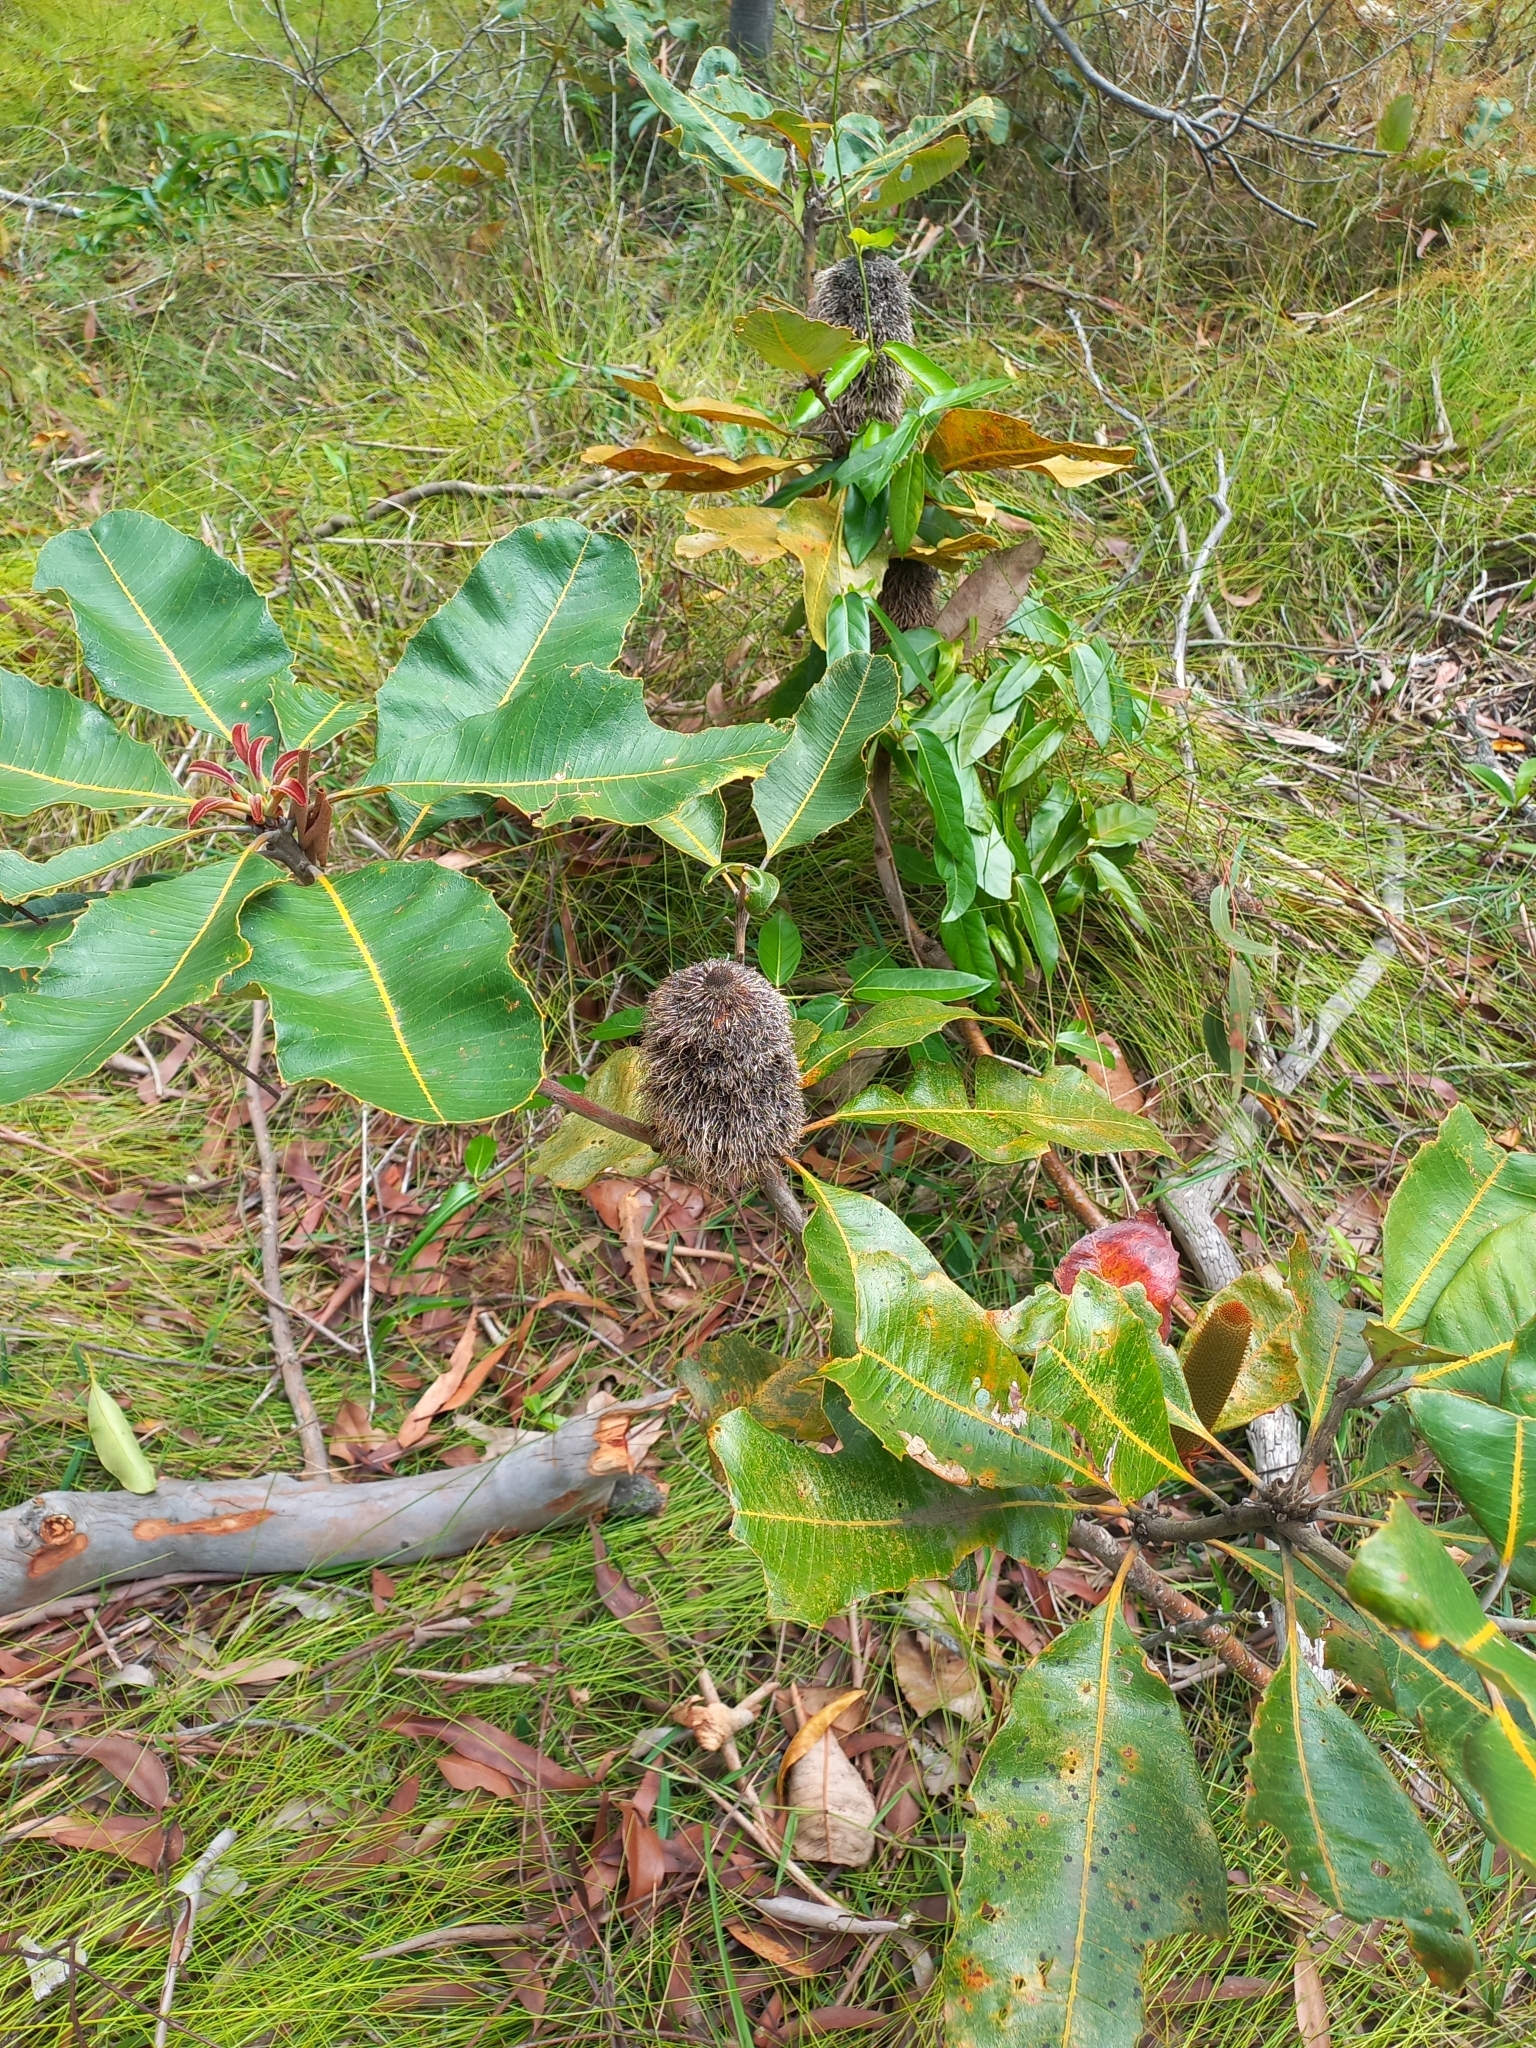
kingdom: Plantae
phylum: Tracheophyta
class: Magnoliopsida
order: Proteales
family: Proteaceae
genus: Banksia
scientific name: Banksia robur
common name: Broadleaf banksia
